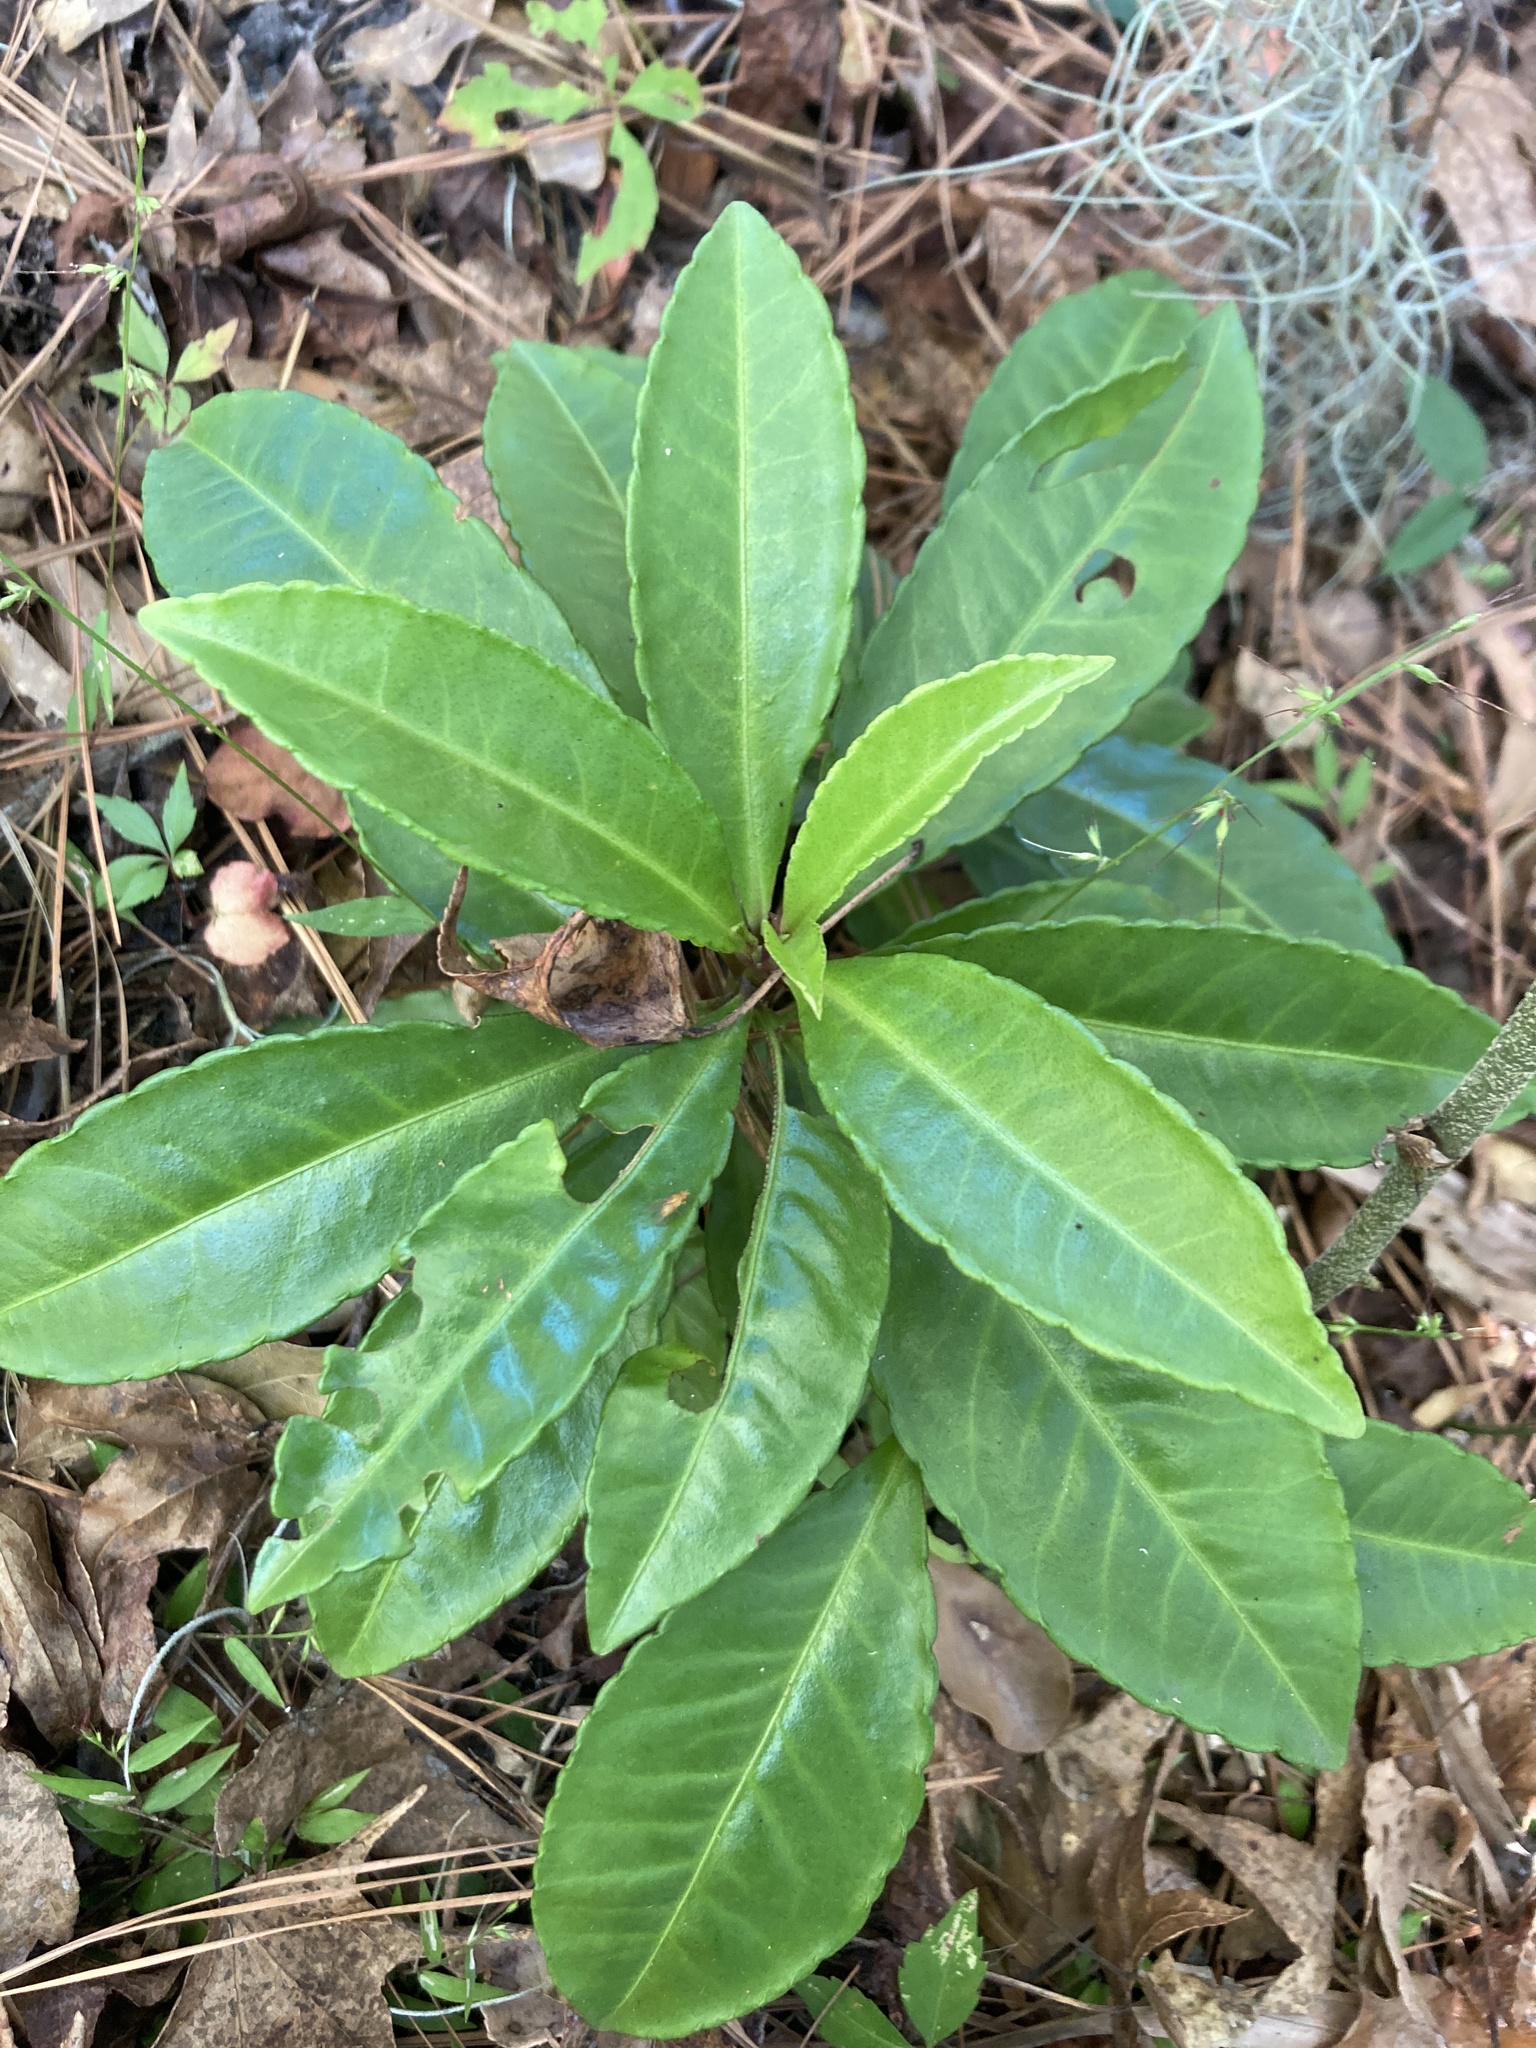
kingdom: Plantae
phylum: Tracheophyta
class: Magnoliopsida
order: Ericales
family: Primulaceae
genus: Ardisia
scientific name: Ardisia crenata
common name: Hen's eyes
